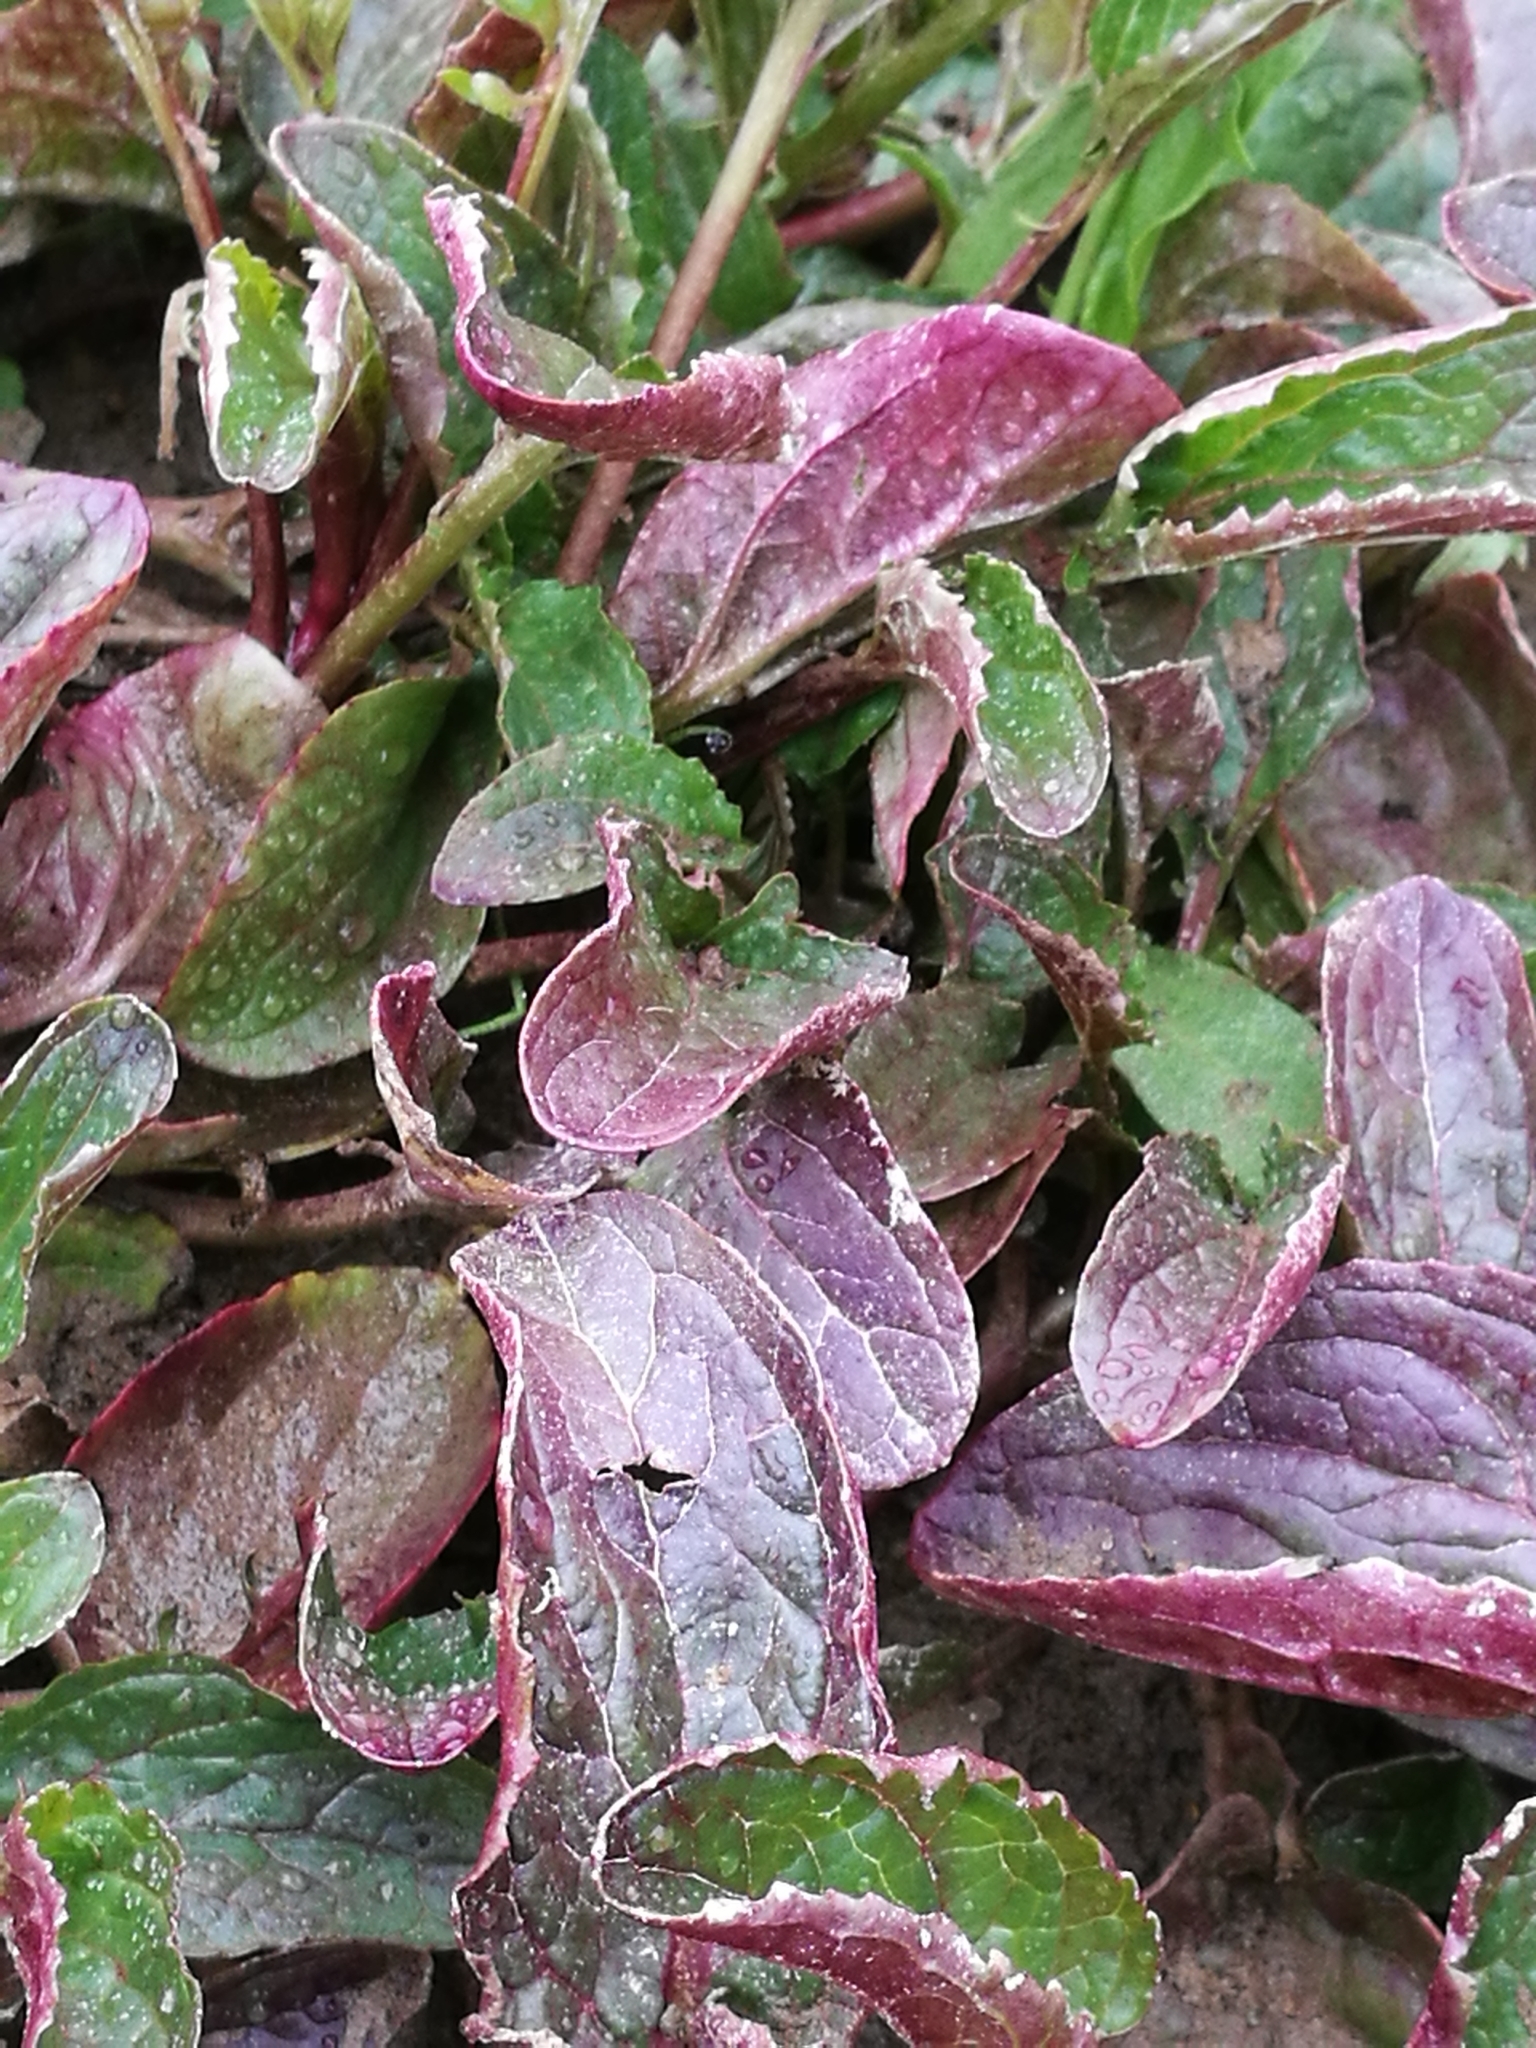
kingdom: Plantae
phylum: Tracheophyta
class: Magnoliopsida
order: Lamiales
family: Phrymaceae
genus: Erythranthe
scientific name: Erythranthe guttata
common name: Monkeyflower
